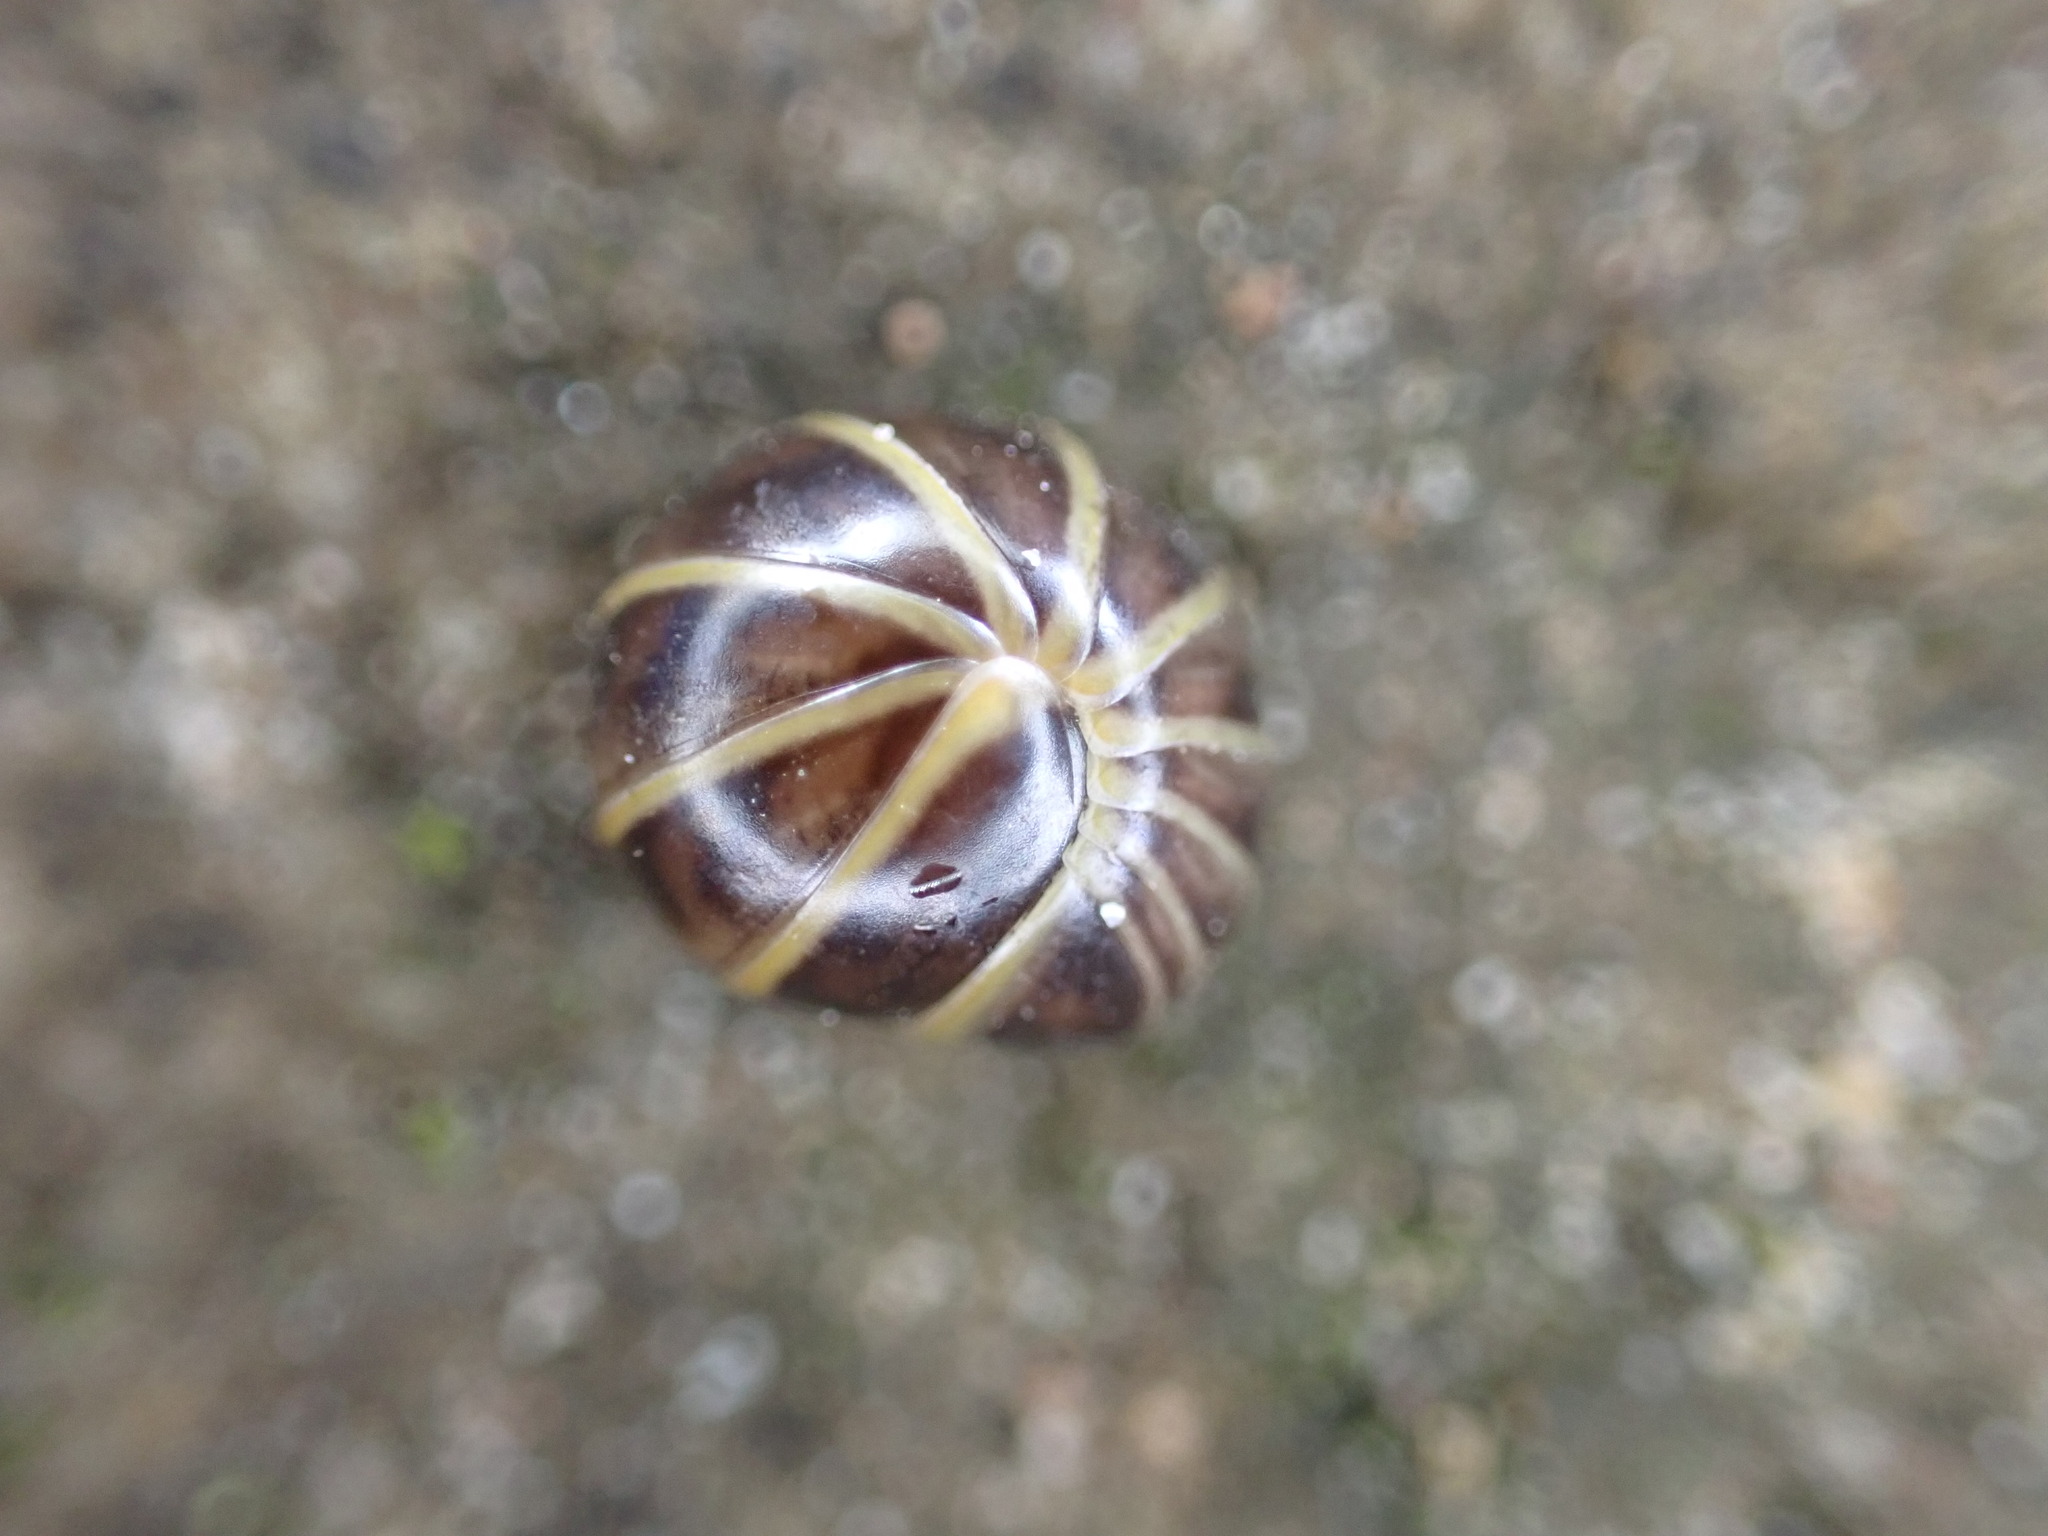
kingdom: Animalia
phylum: Arthropoda
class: Diplopoda
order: Glomerida
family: Glomeridae
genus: Glomeris
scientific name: Glomeris marginata
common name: Bordered pill millipede
